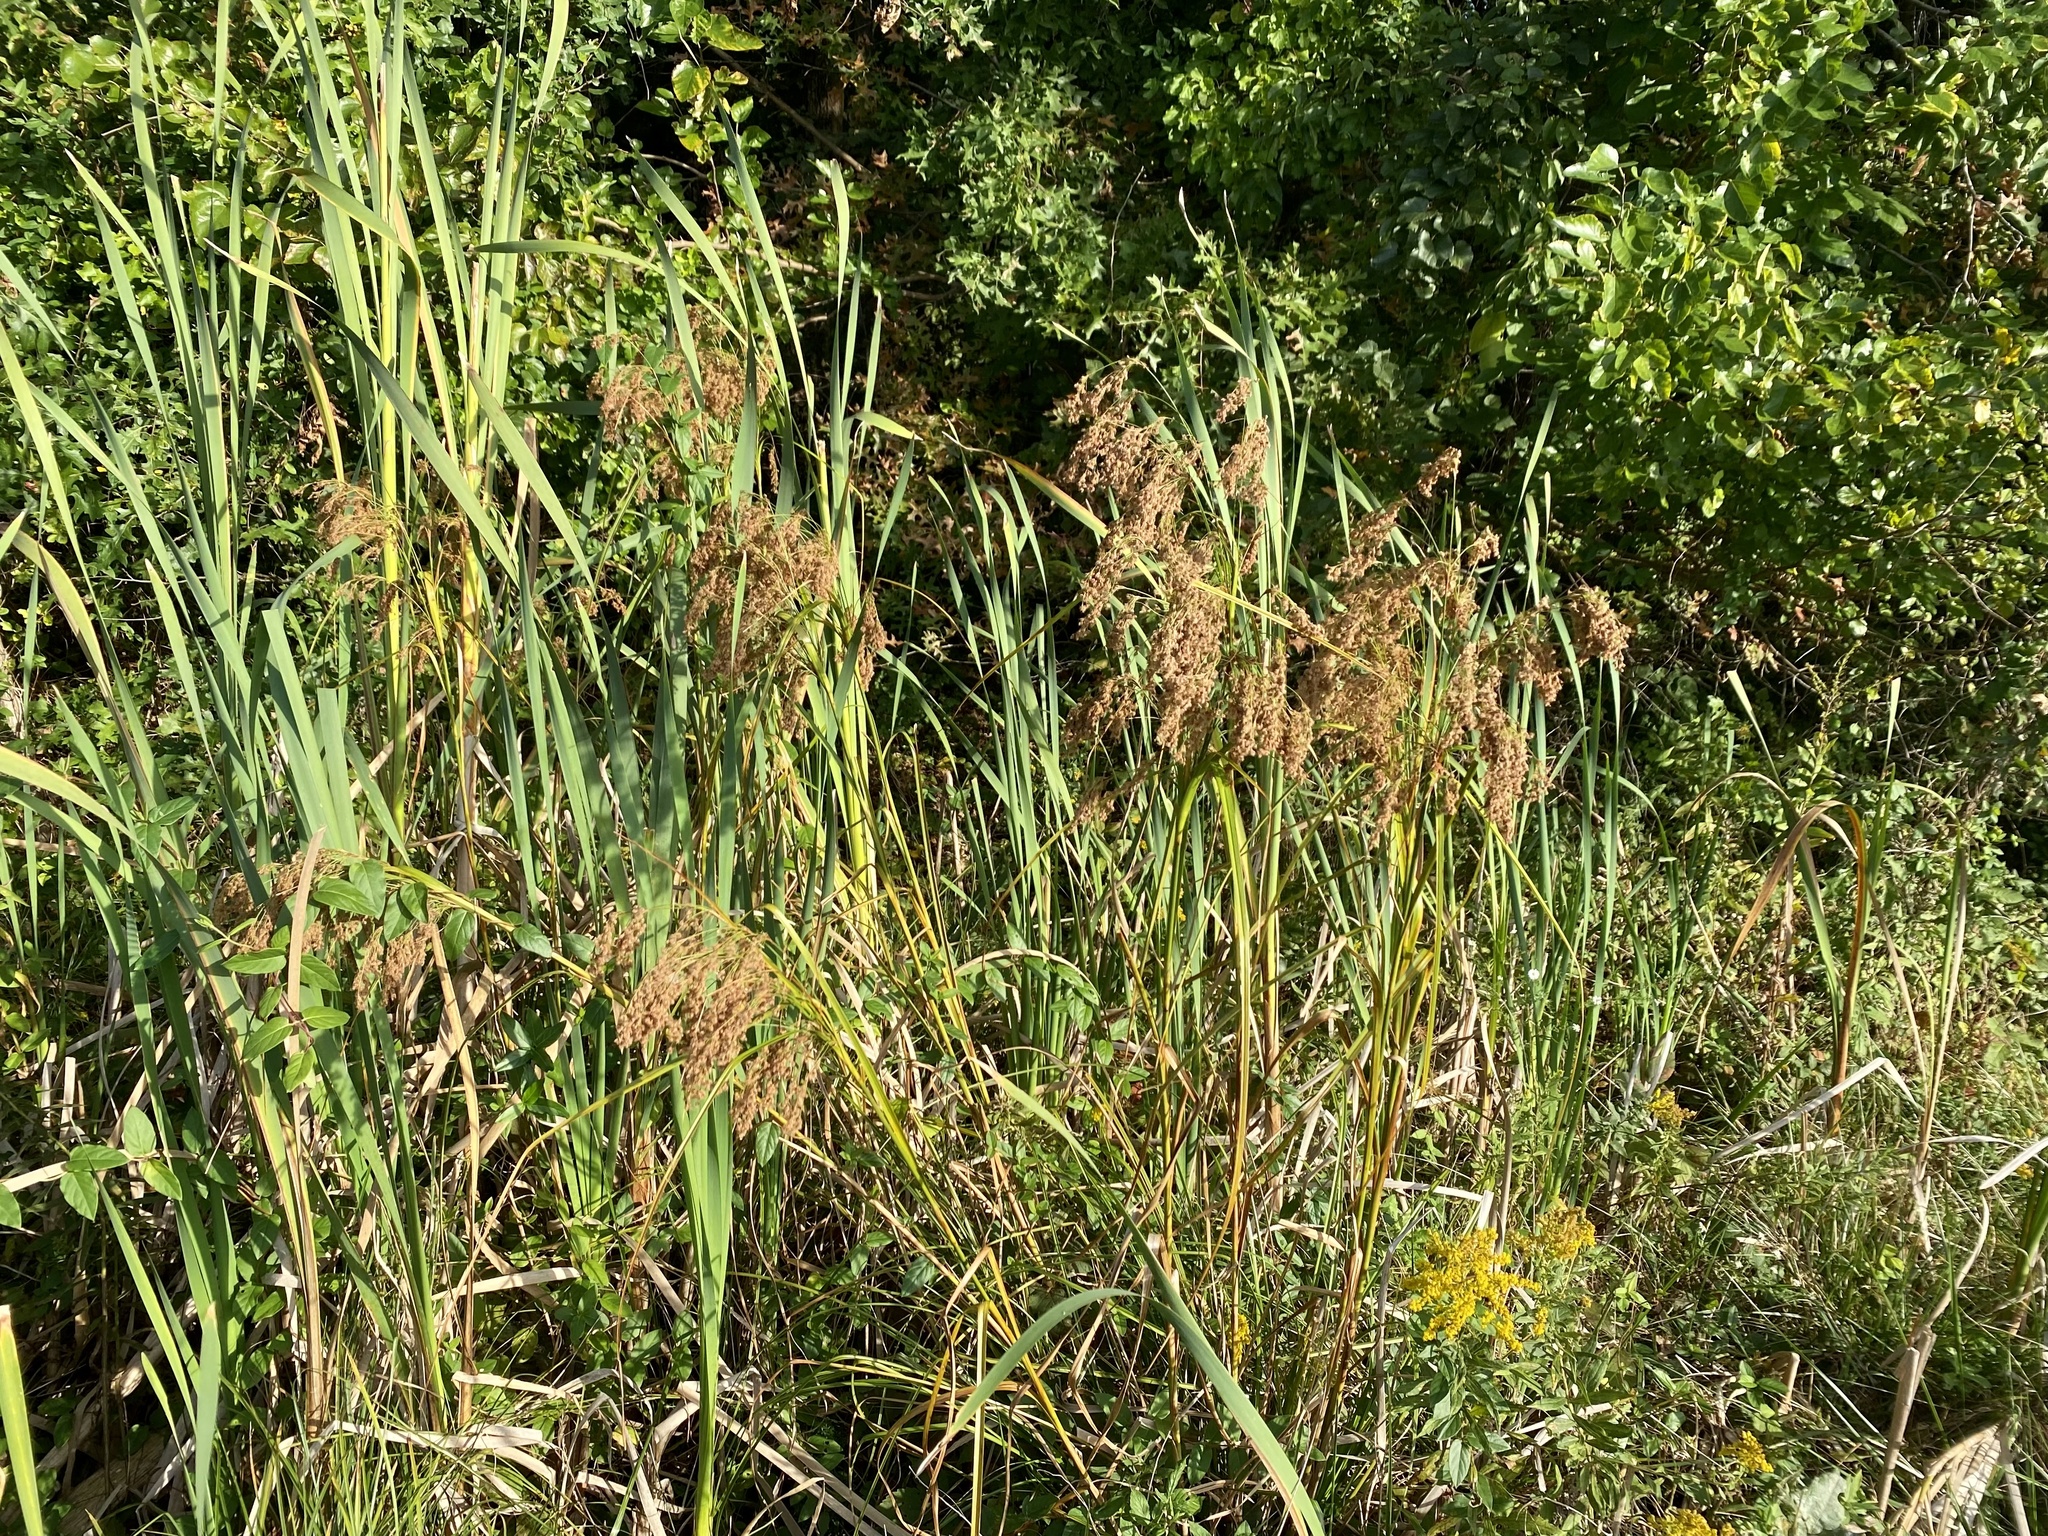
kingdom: Plantae
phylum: Tracheophyta
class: Liliopsida
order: Poales
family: Cyperaceae
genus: Scirpus
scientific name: Scirpus cyperinus
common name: Black-sheathed bulrush
